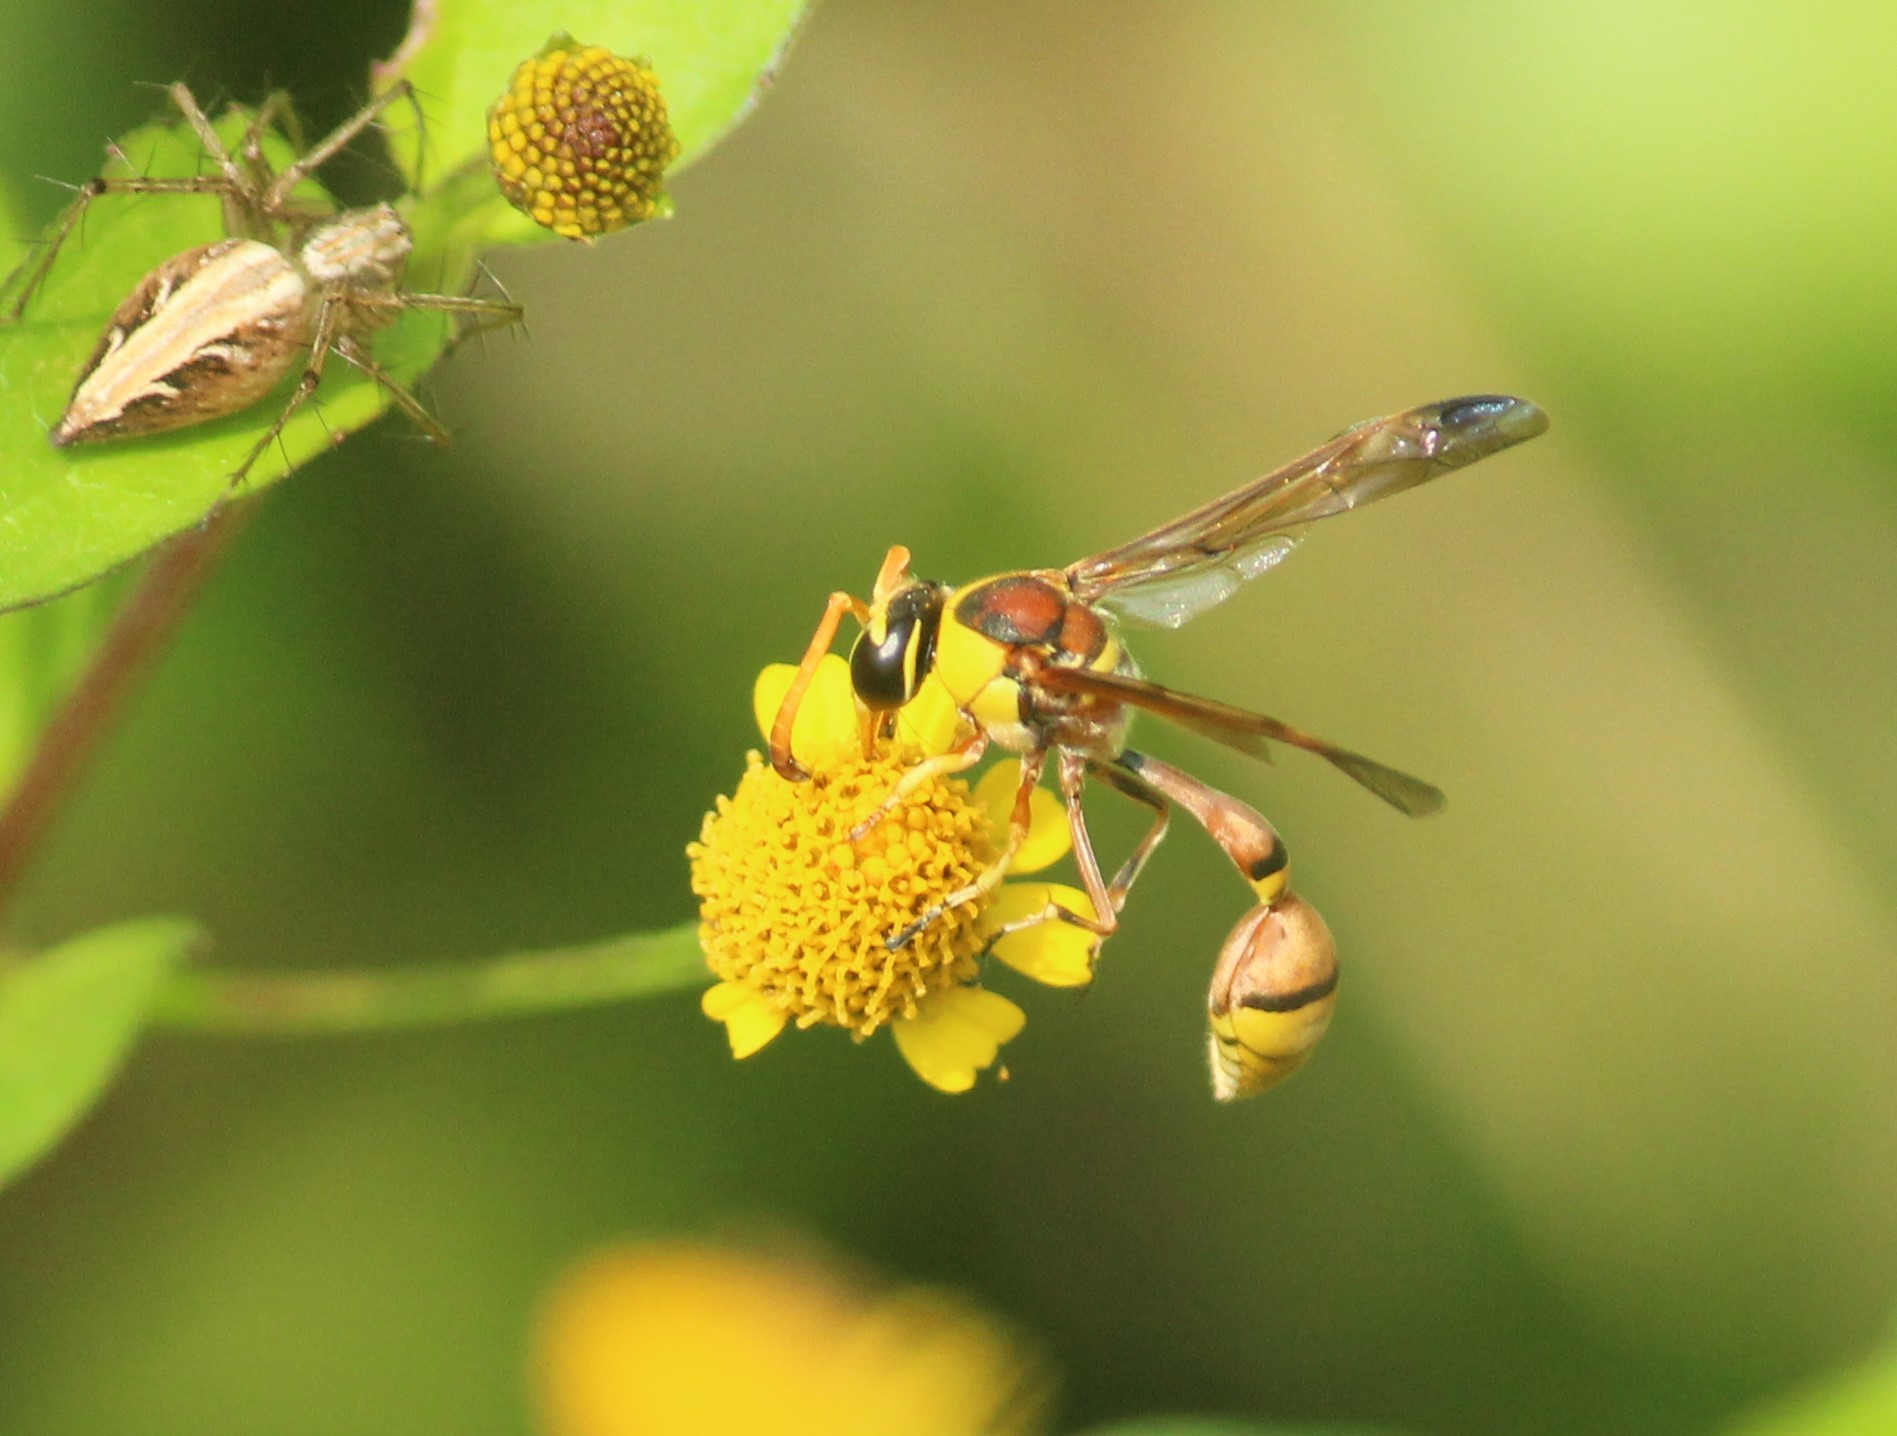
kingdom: Animalia
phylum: Arthropoda
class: Insecta
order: Hymenoptera
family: Eumenidae
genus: Delta
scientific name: Delta esuriens
